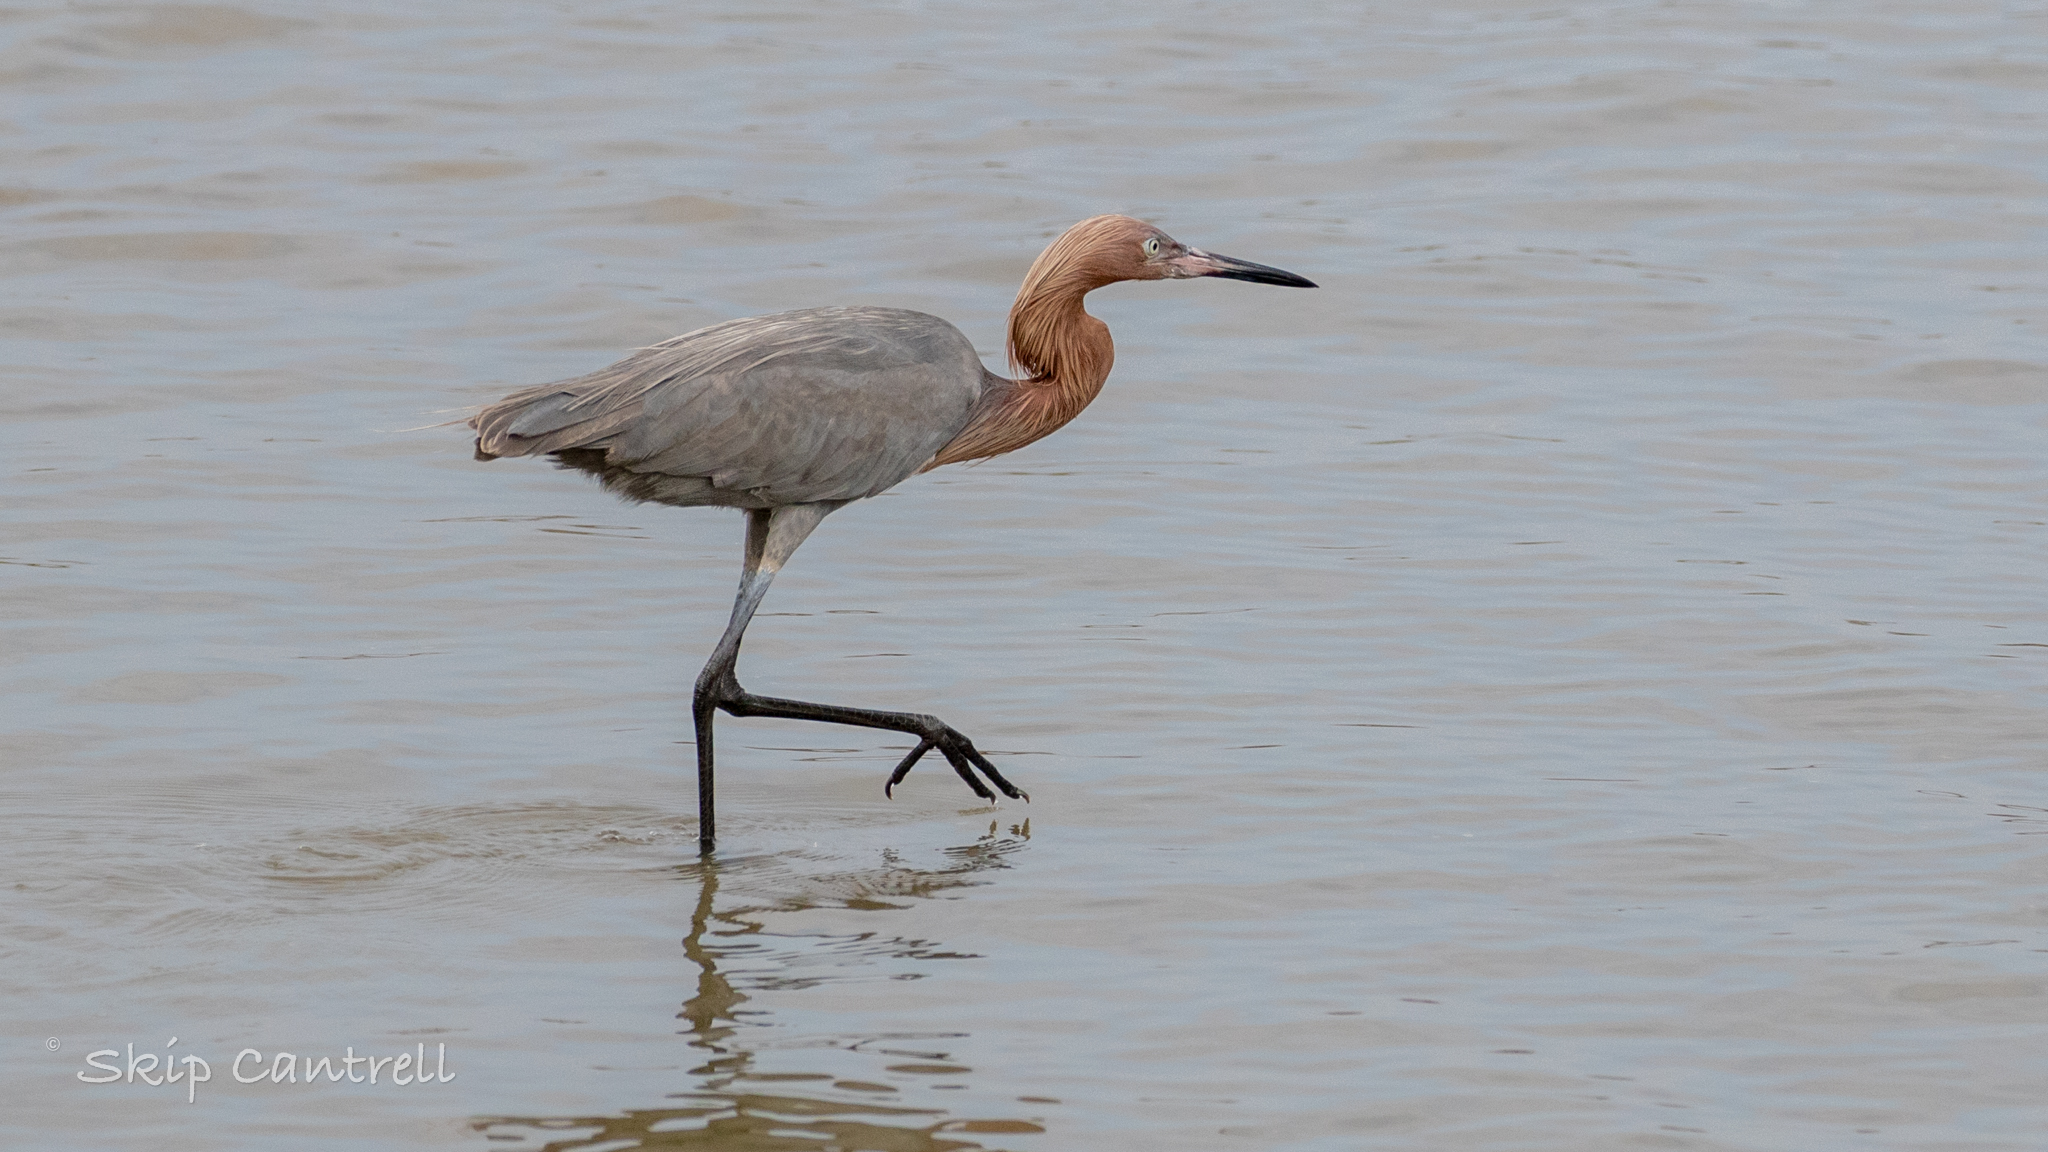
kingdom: Animalia
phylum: Chordata
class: Aves
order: Pelecaniformes
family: Ardeidae
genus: Egretta
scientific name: Egretta rufescens
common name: Reddish egret
